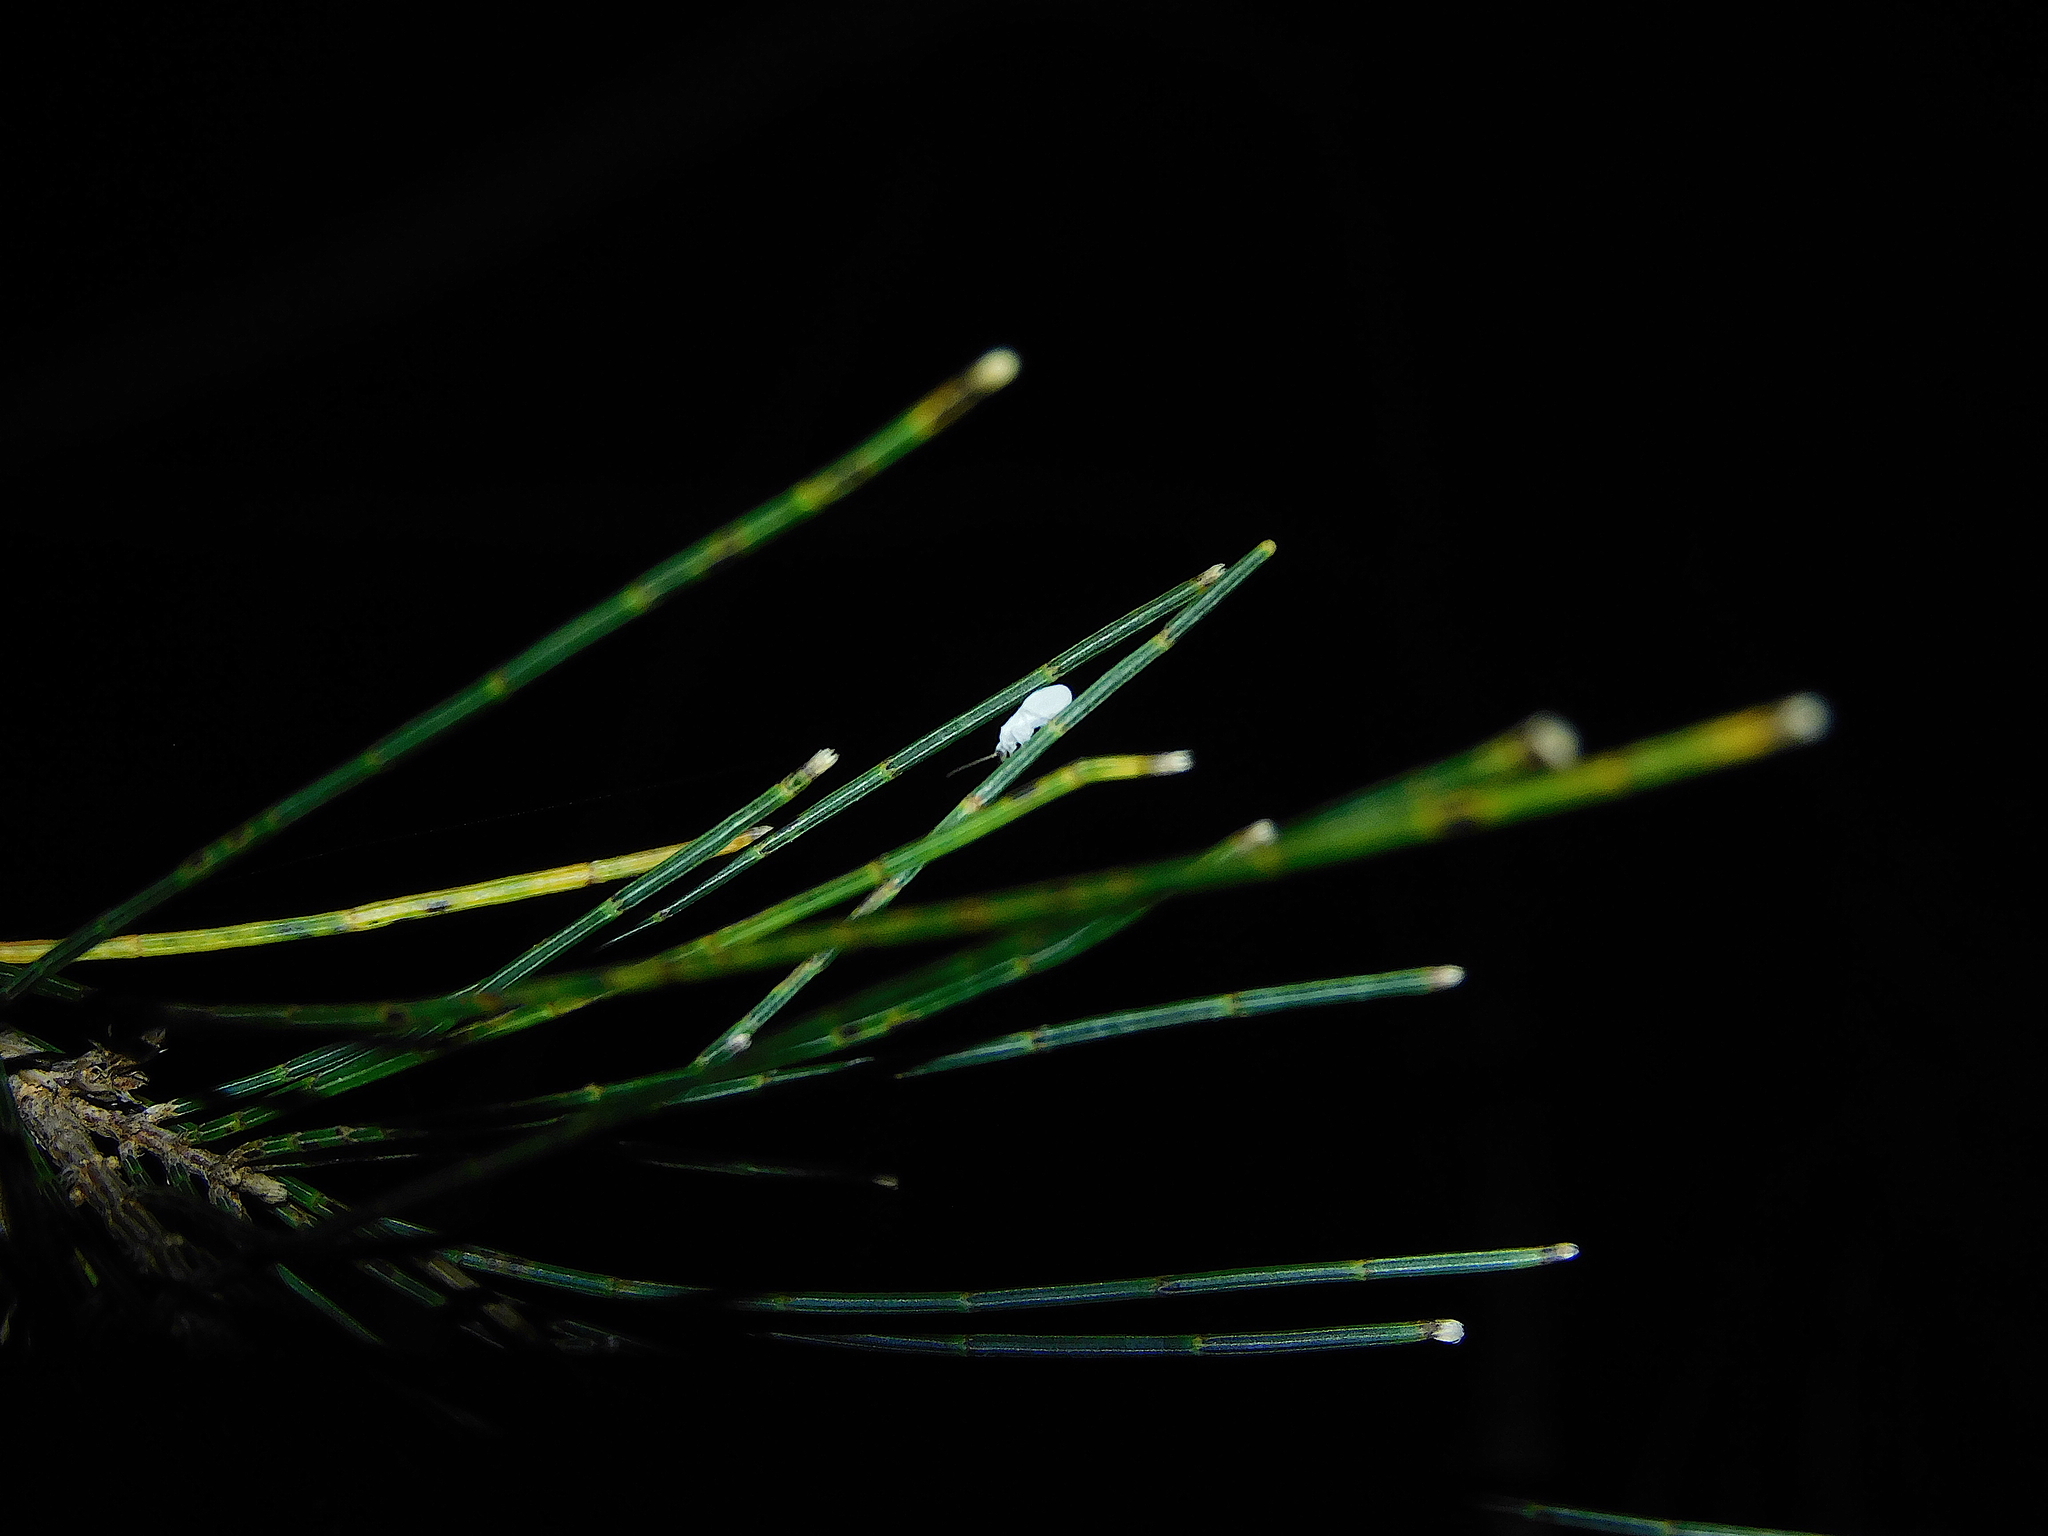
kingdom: Animalia
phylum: Arthropoda
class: Insecta
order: Neuroptera
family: Coniopterygidae
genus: Cryptoscenea
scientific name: Cryptoscenea australiensis
